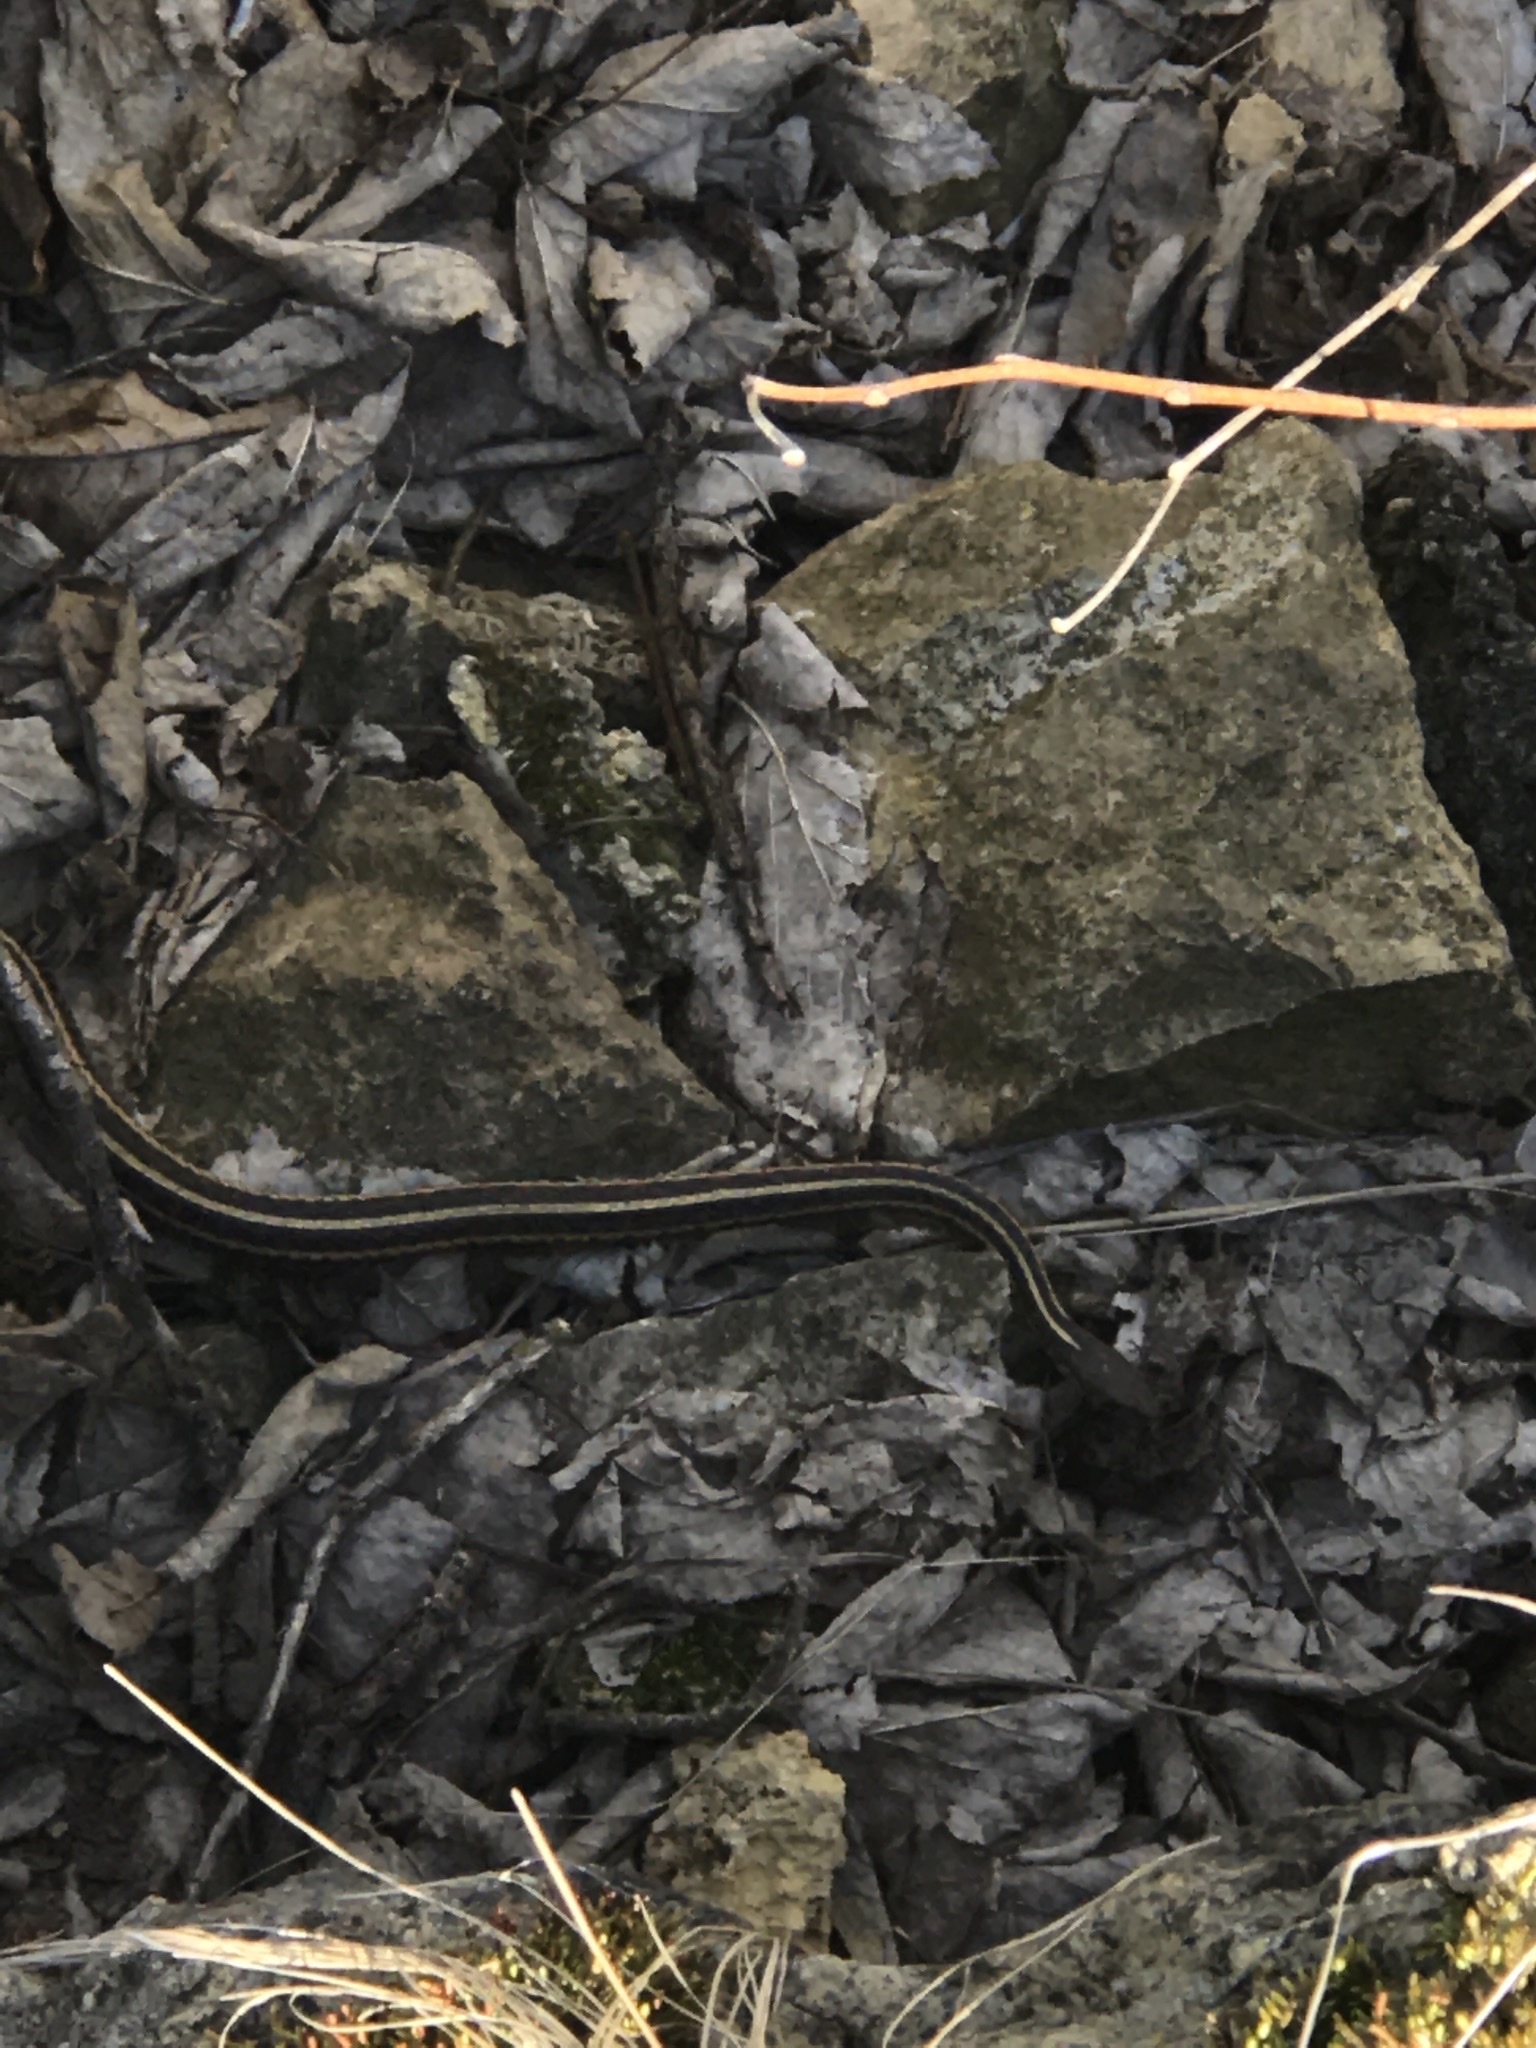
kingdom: Animalia
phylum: Chordata
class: Squamata
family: Colubridae
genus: Thamnophis
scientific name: Thamnophis sirtalis
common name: Common garter snake
